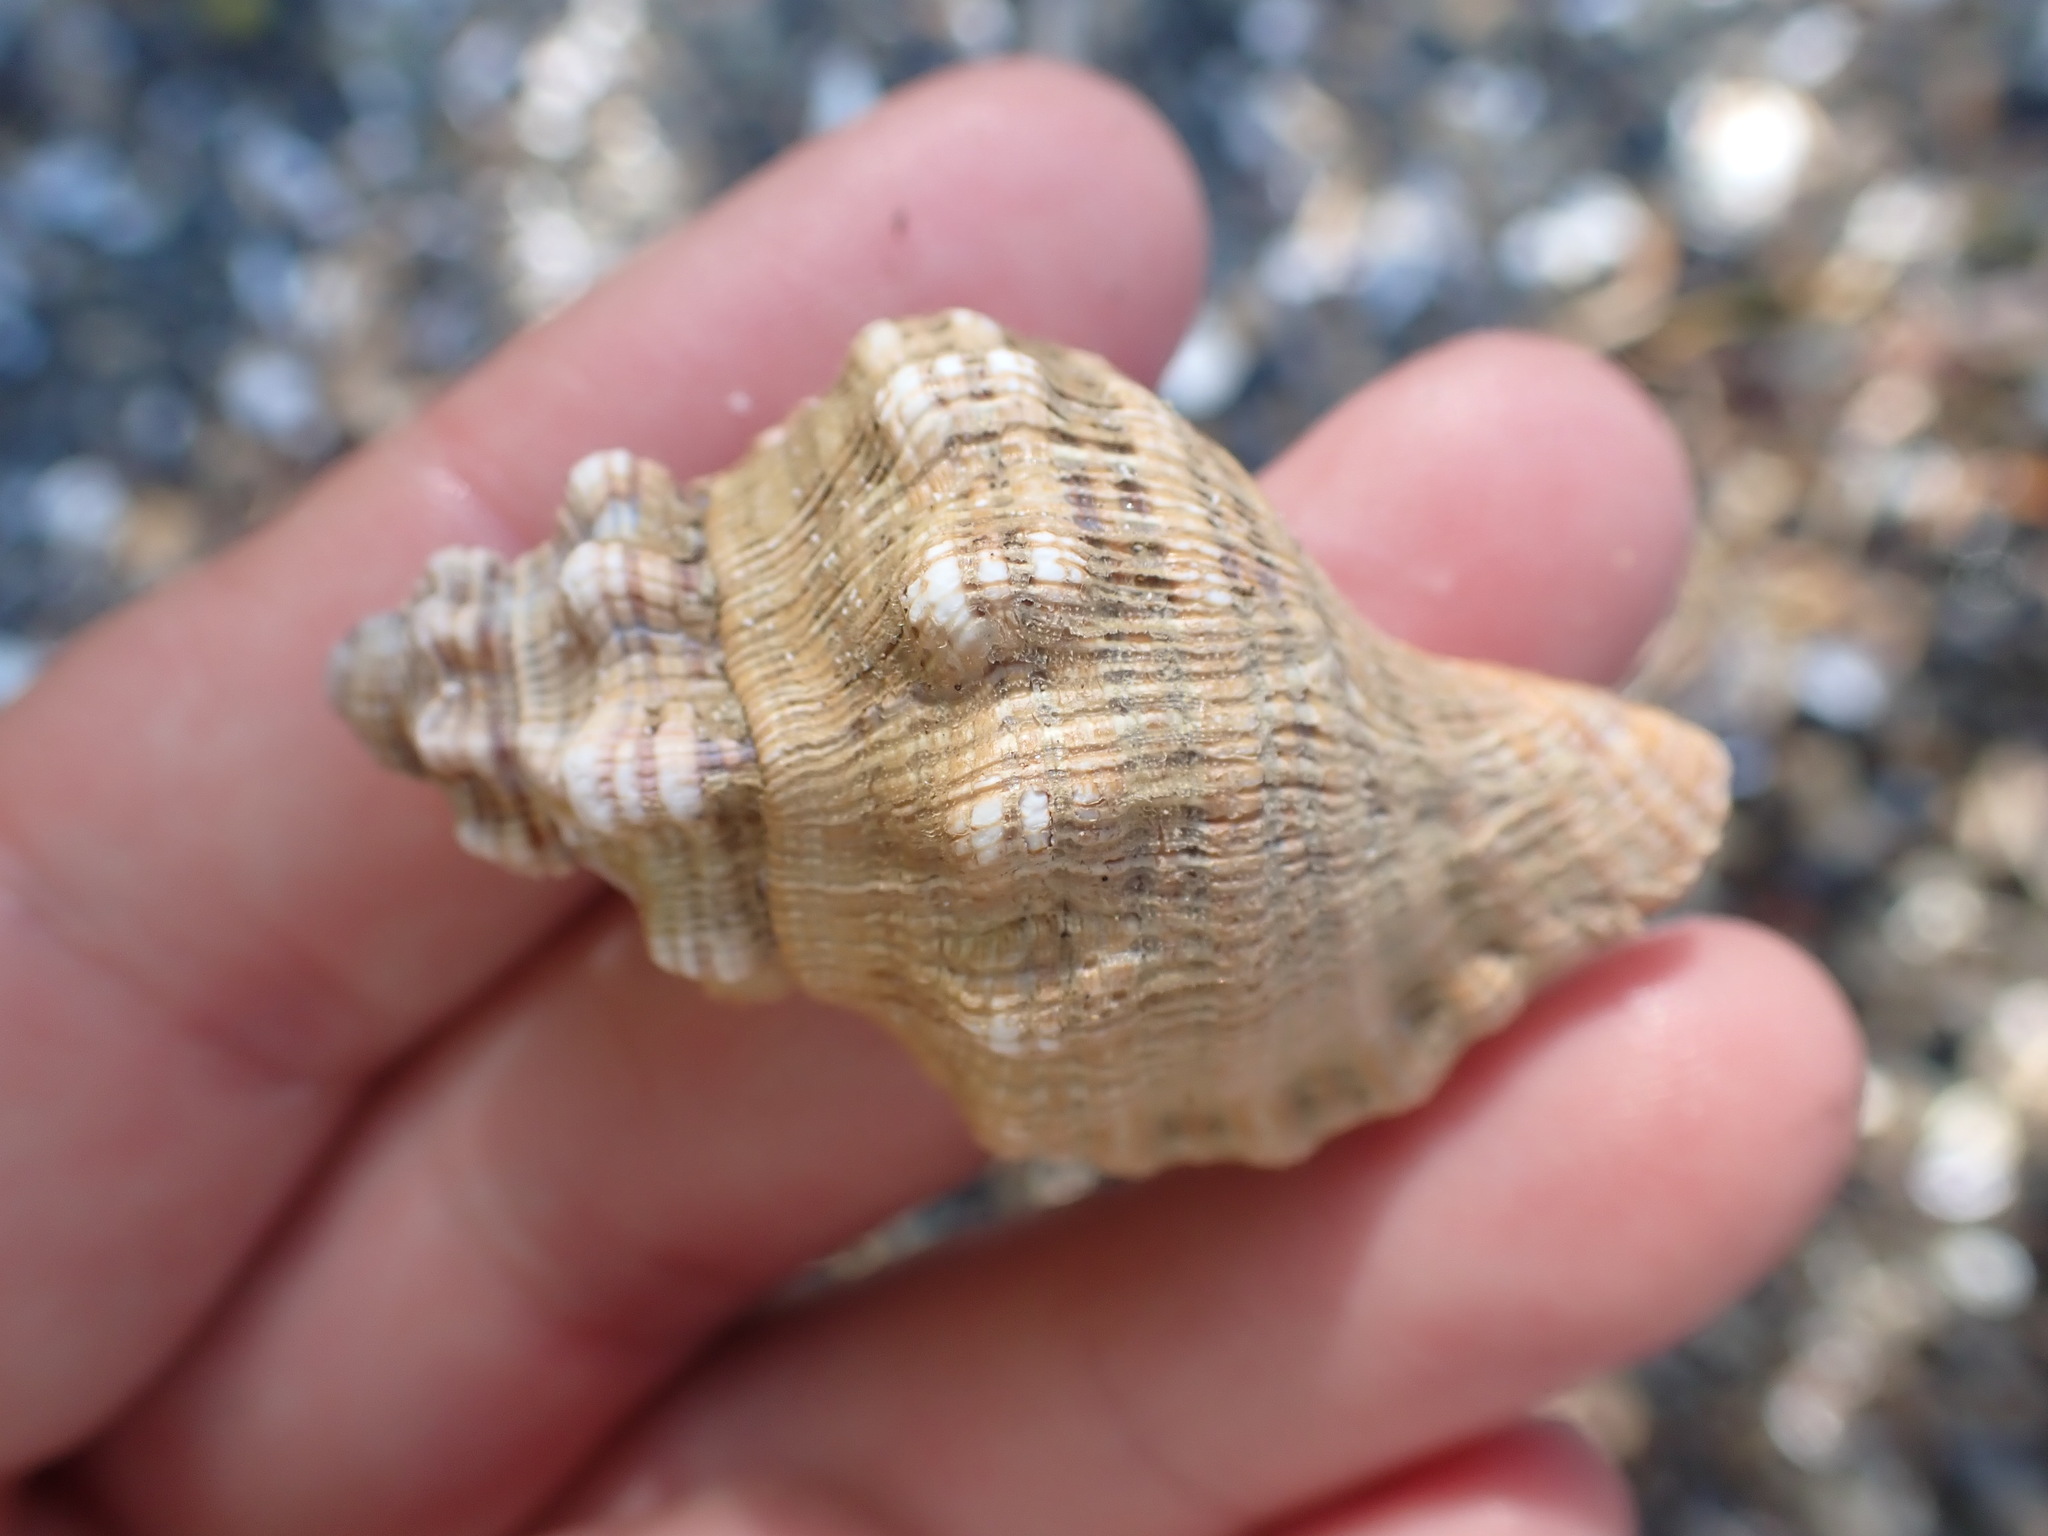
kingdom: Animalia
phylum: Mollusca
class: Gastropoda
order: Littorinimorpha
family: Cymatiidae
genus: Cabestana
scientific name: Cabestana spengleri
